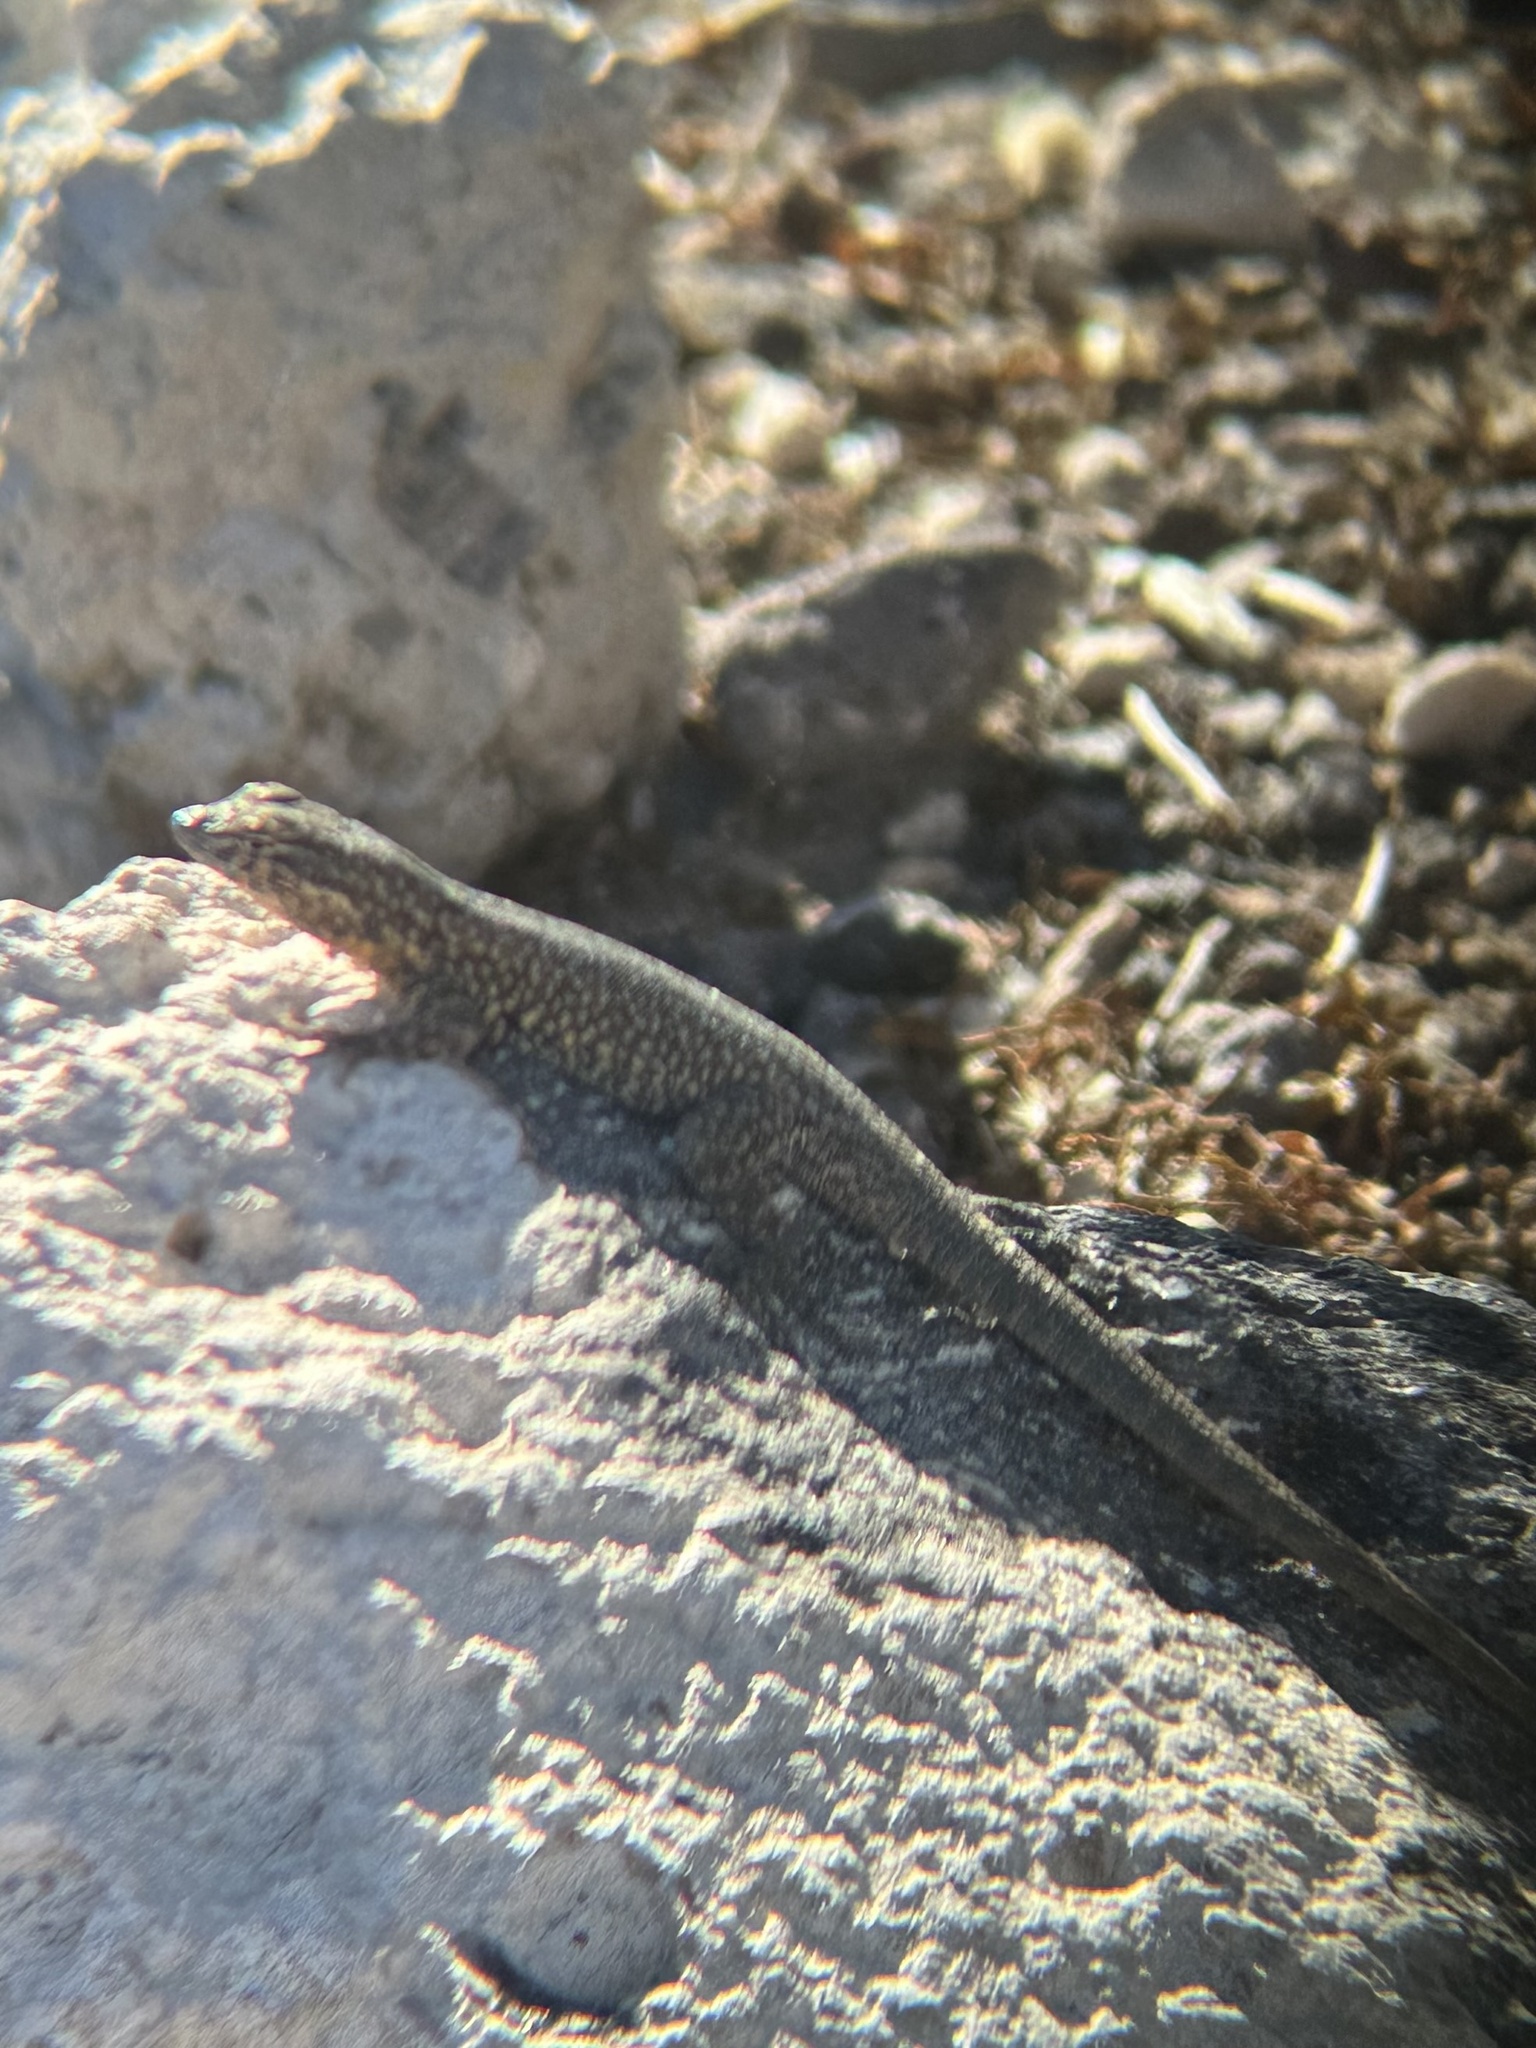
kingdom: Animalia
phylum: Chordata
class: Squamata
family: Phrynosomatidae
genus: Uta
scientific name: Uta stansburiana
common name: Side-blotched lizard
